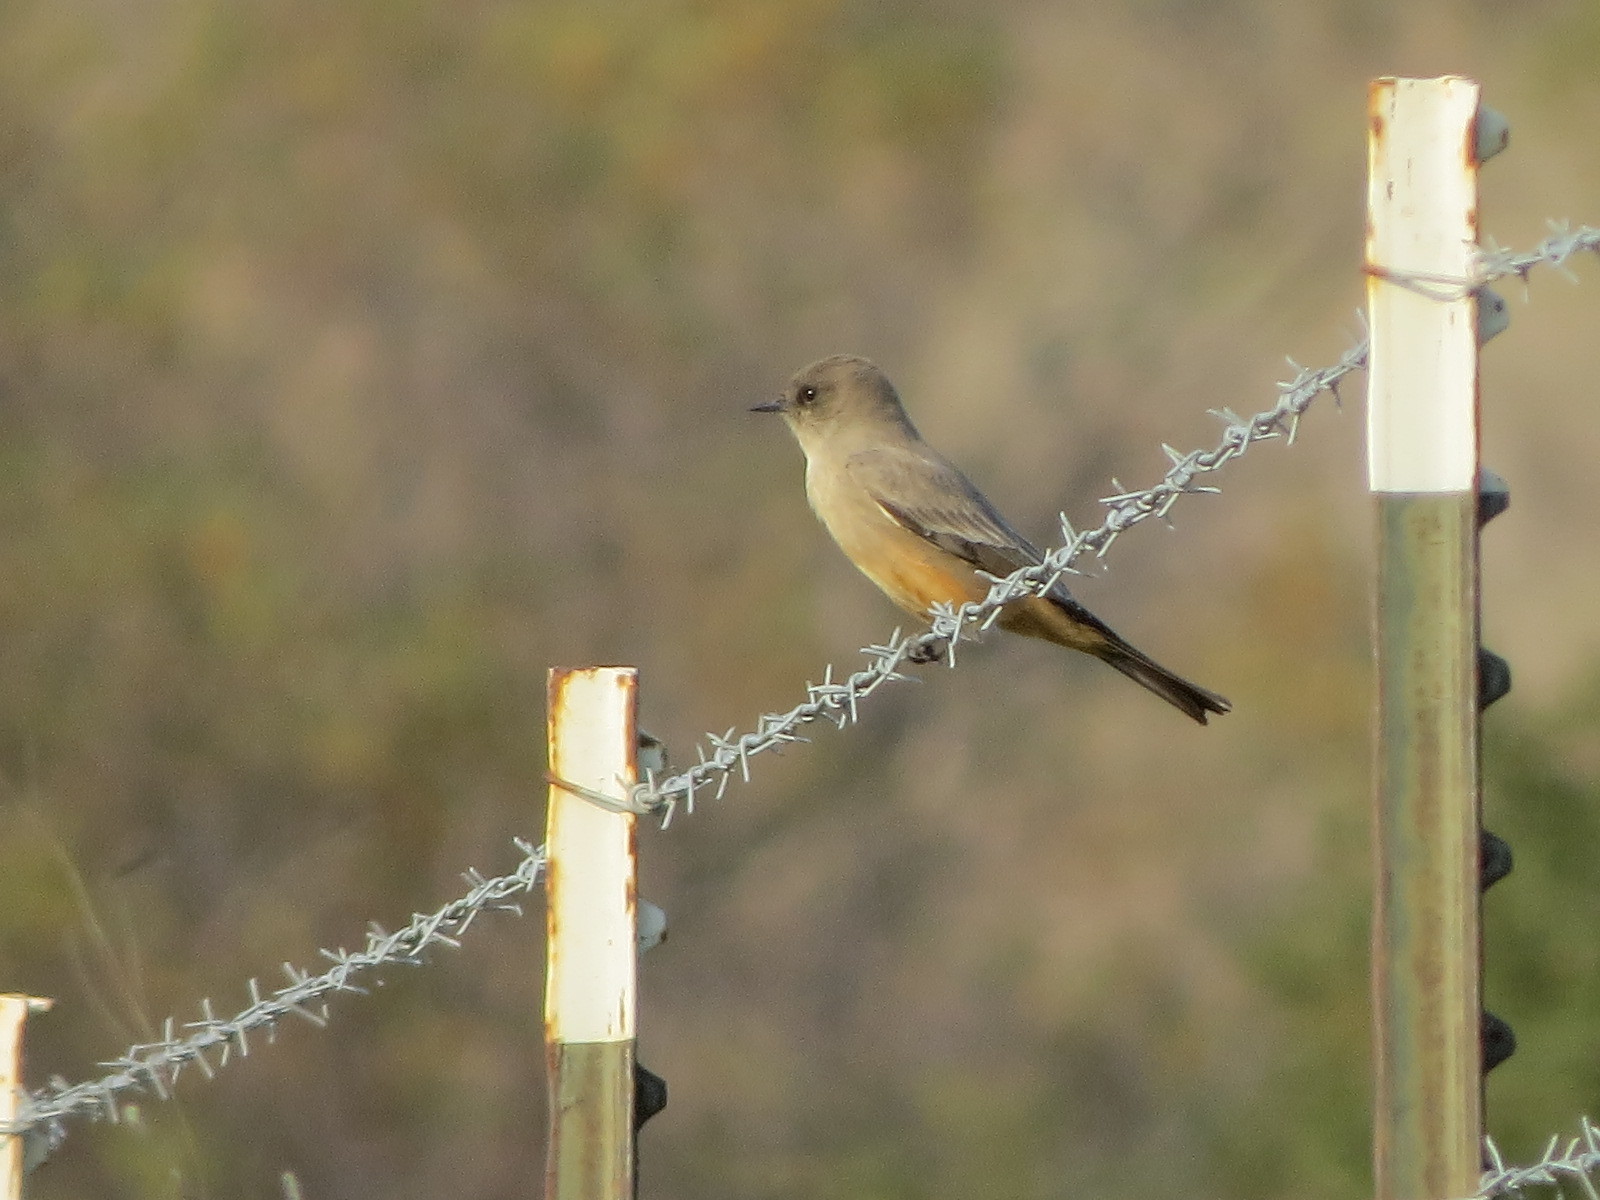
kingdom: Animalia
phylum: Chordata
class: Aves
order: Passeriformes
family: Tyrannidae
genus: Sayornis
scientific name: Sayornis saya
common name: Say's phoebe
